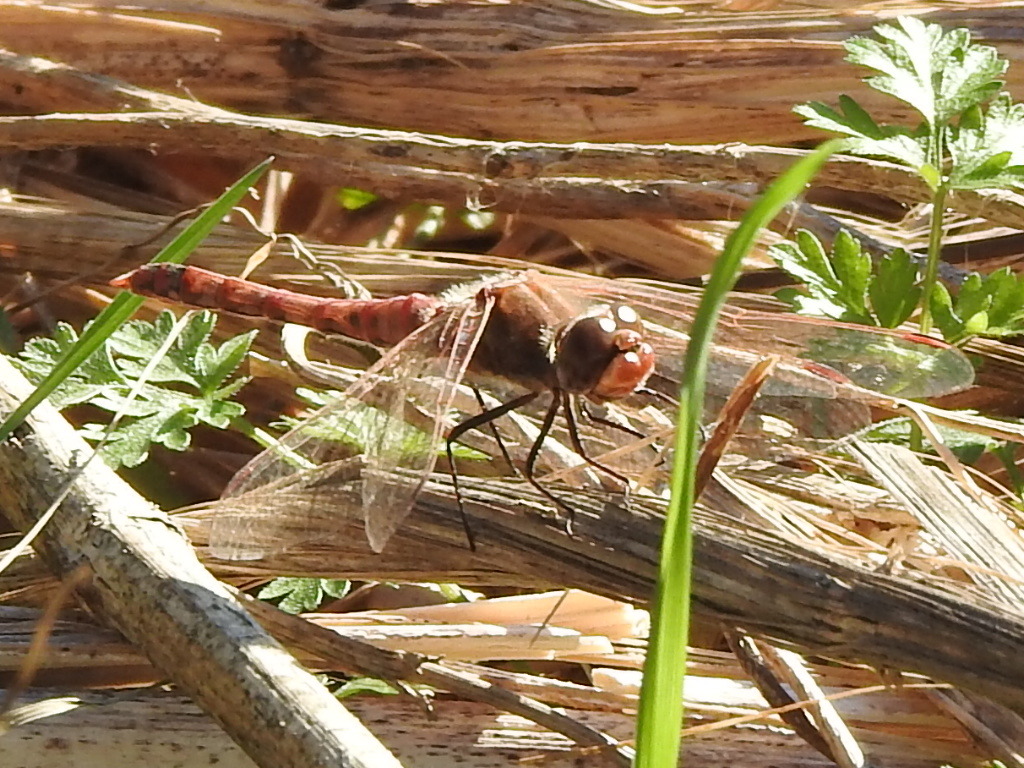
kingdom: Animalia
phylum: Arthropoda
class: Insecta
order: Odonata
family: Libellulidae
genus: Sympetrum
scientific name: Sympetrum corruptum
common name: Variegated meadowhawk
